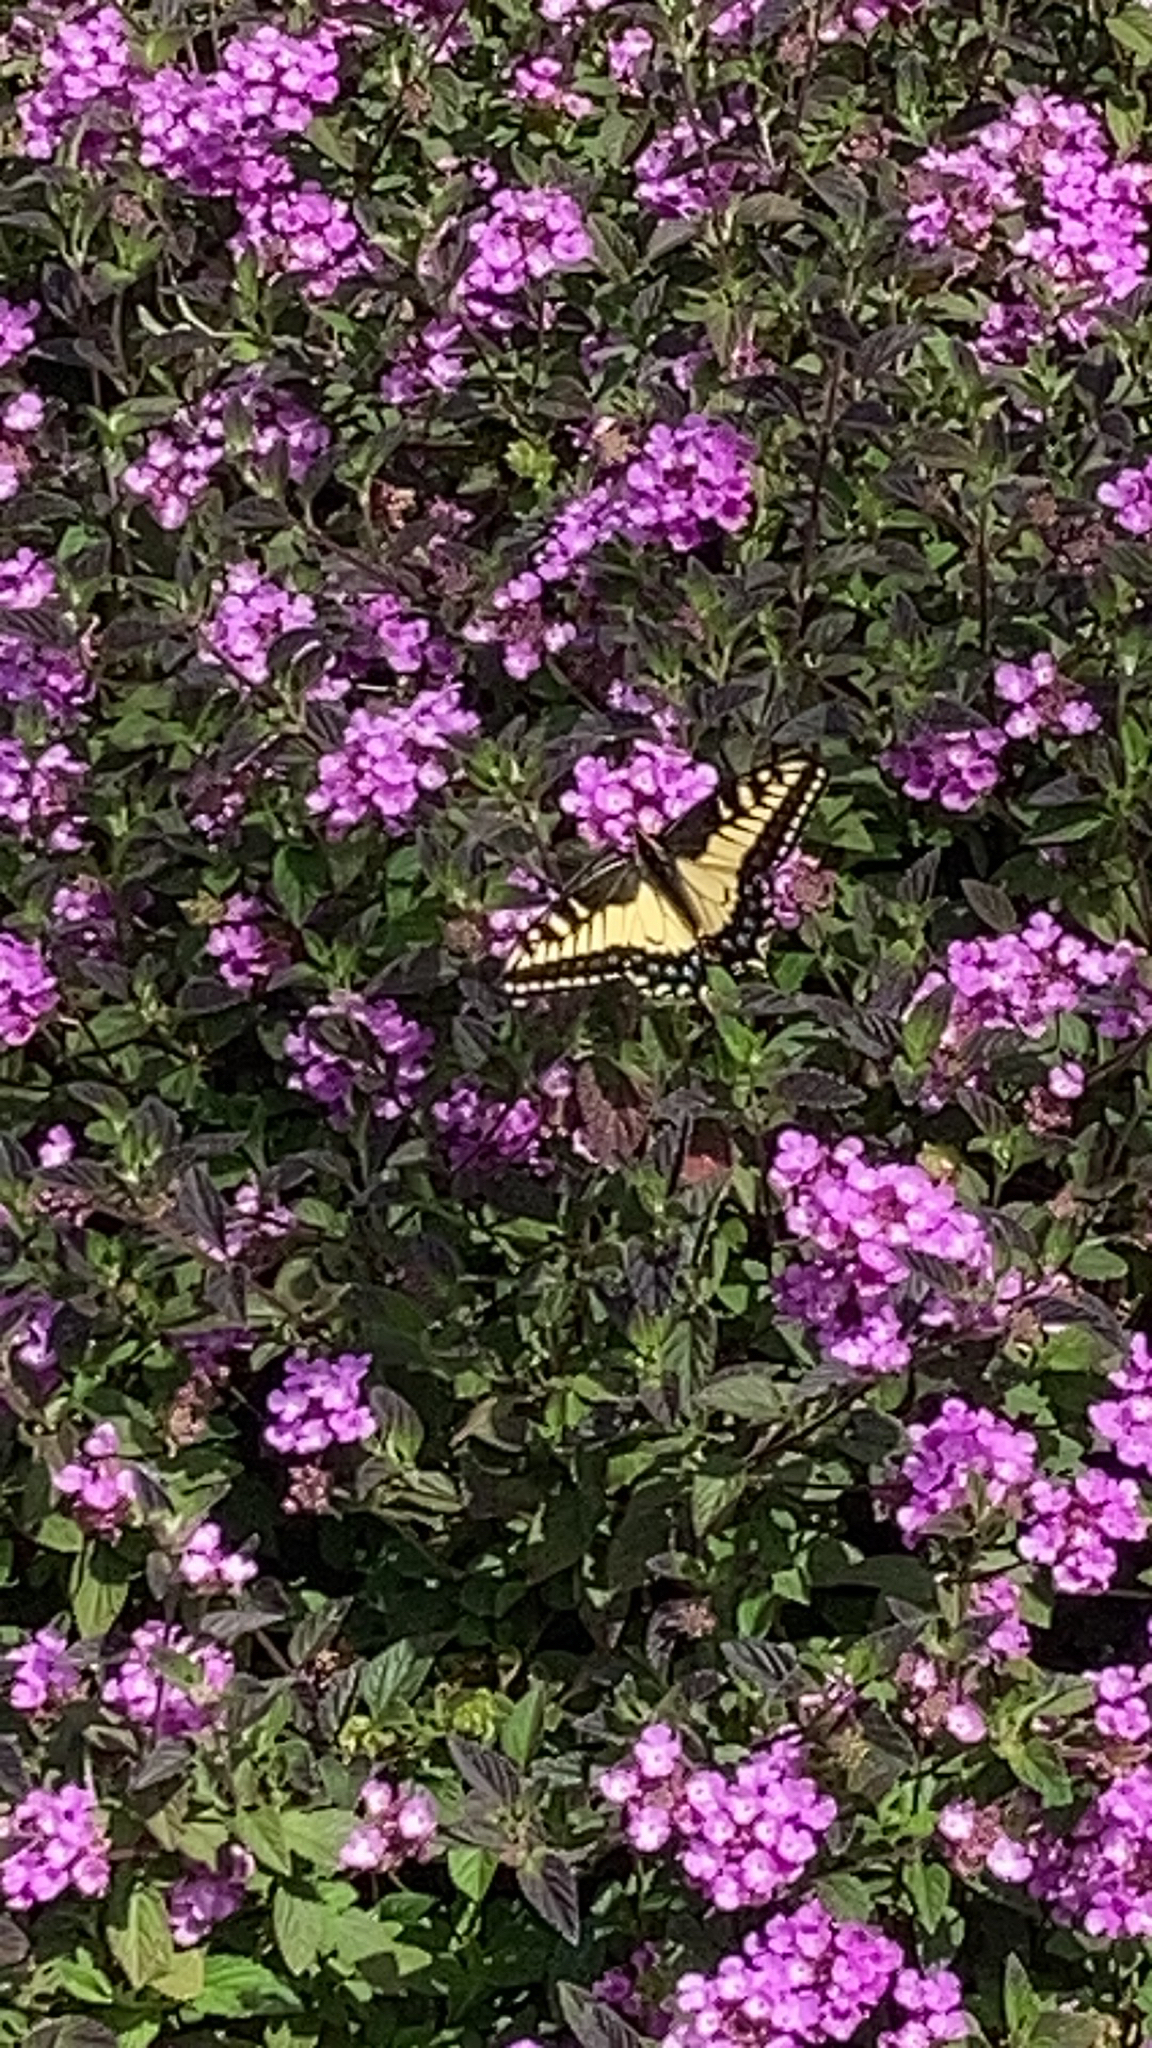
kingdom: Animalia
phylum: Arthropoda
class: Insecta
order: Lepidoptera
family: Papilionidae
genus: Papilio
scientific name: Papilio zelicaon
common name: Anise swallowtail
